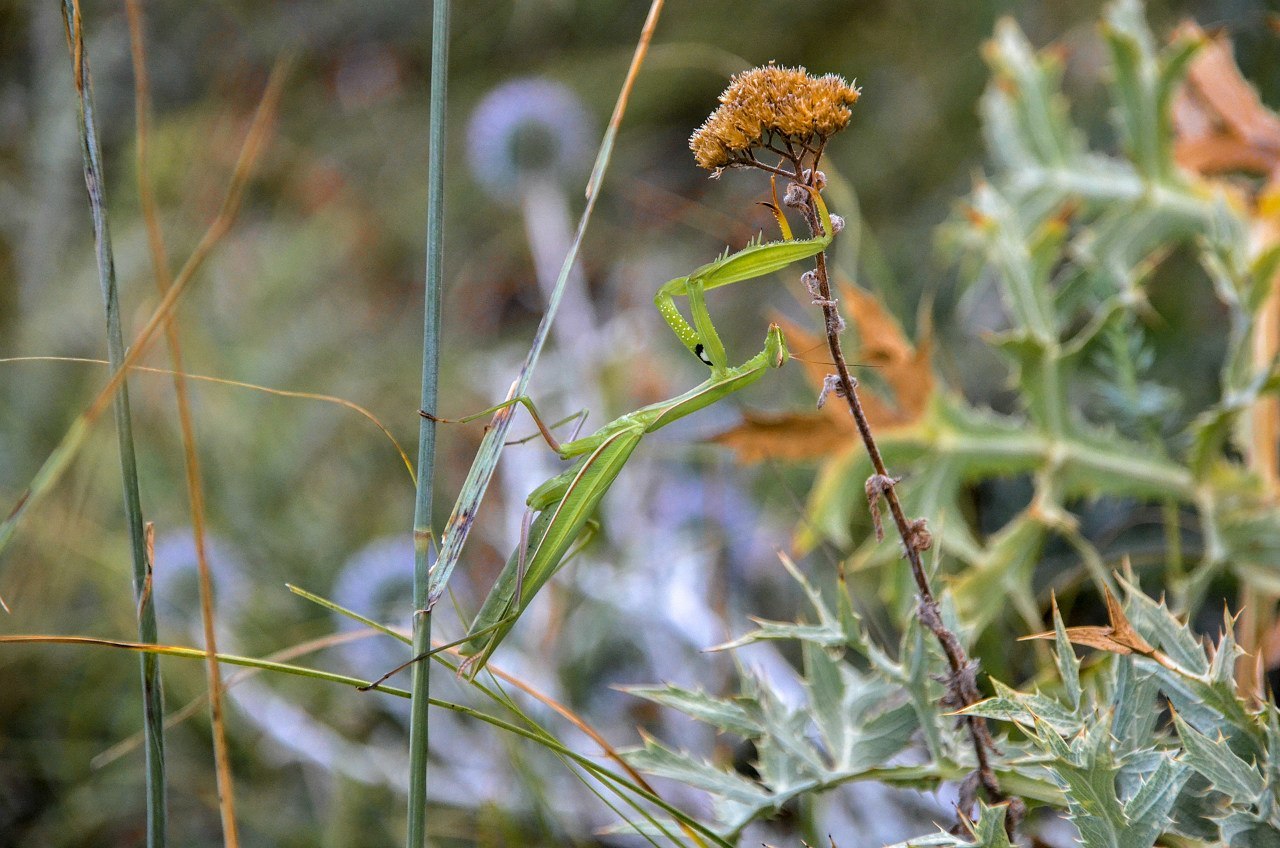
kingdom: Animalia
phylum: Arthropoda
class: Insecta
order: Mantodea
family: Mantidae
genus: Mantis
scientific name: Mantis religiosa
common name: Praying mantis
